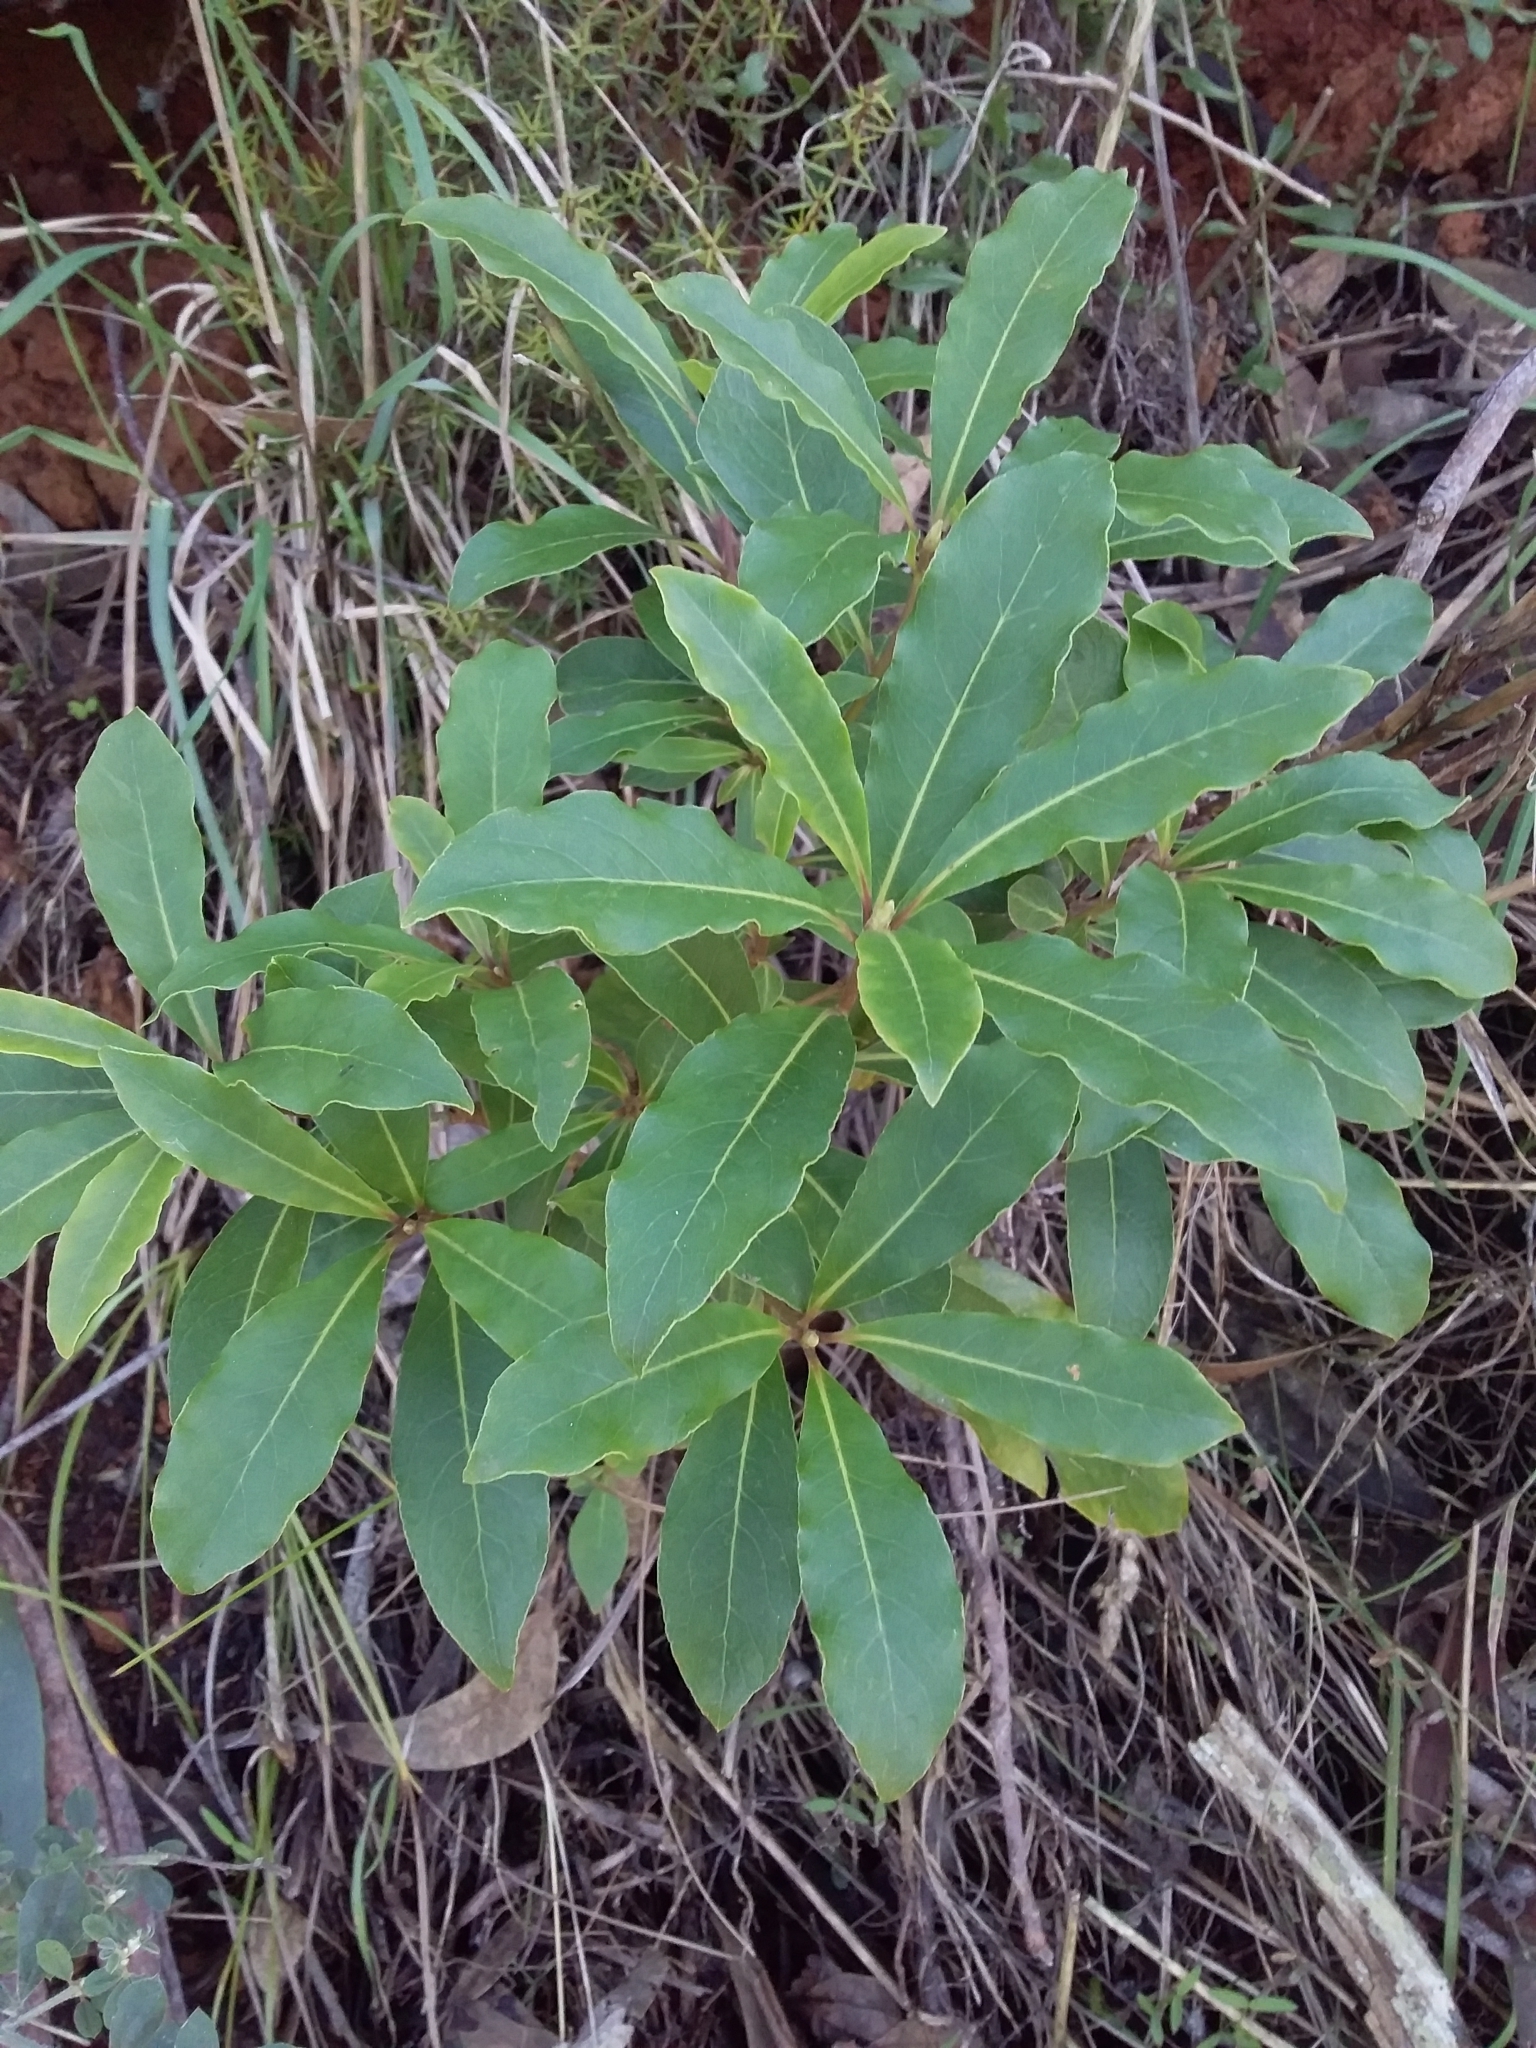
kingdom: Plantae
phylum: Tracheophyta
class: Magnoliopsida
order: Apiales
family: Pittosporaceae
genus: Pittosporum
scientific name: Pittosporum undulatum
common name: Australian cheesewood
